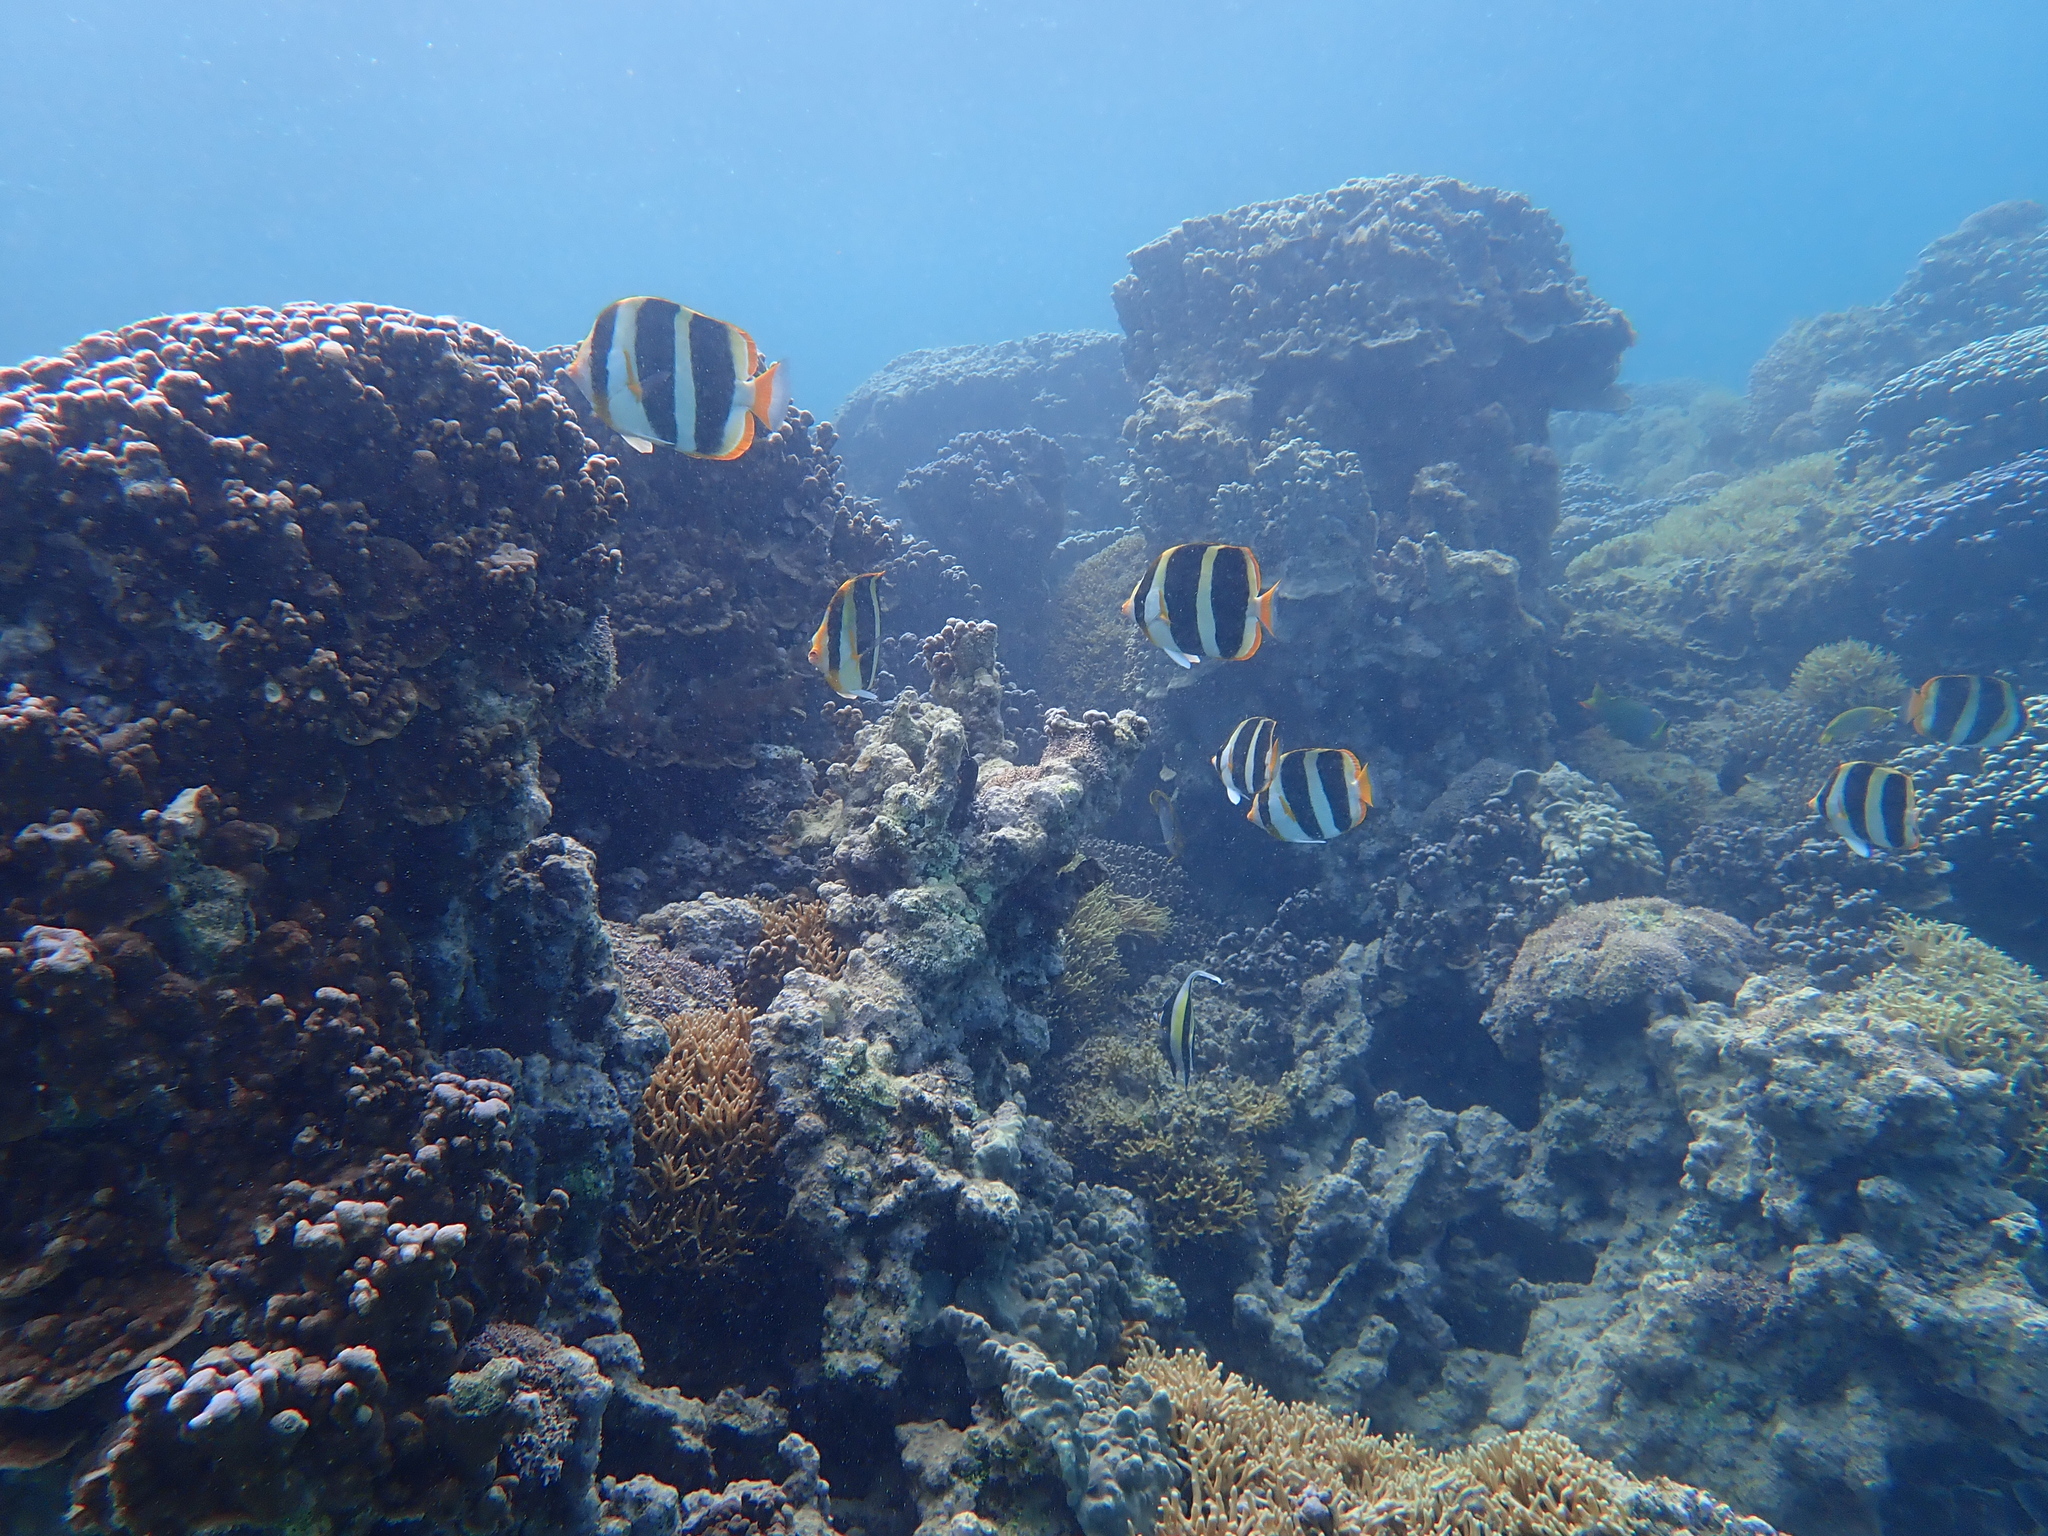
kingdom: Animalia
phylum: Chordata
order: Perciformes
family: Chaetodontidae
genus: Chaetodon
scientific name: Chaetodon tricinctus
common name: Three-striped butterflyfish
